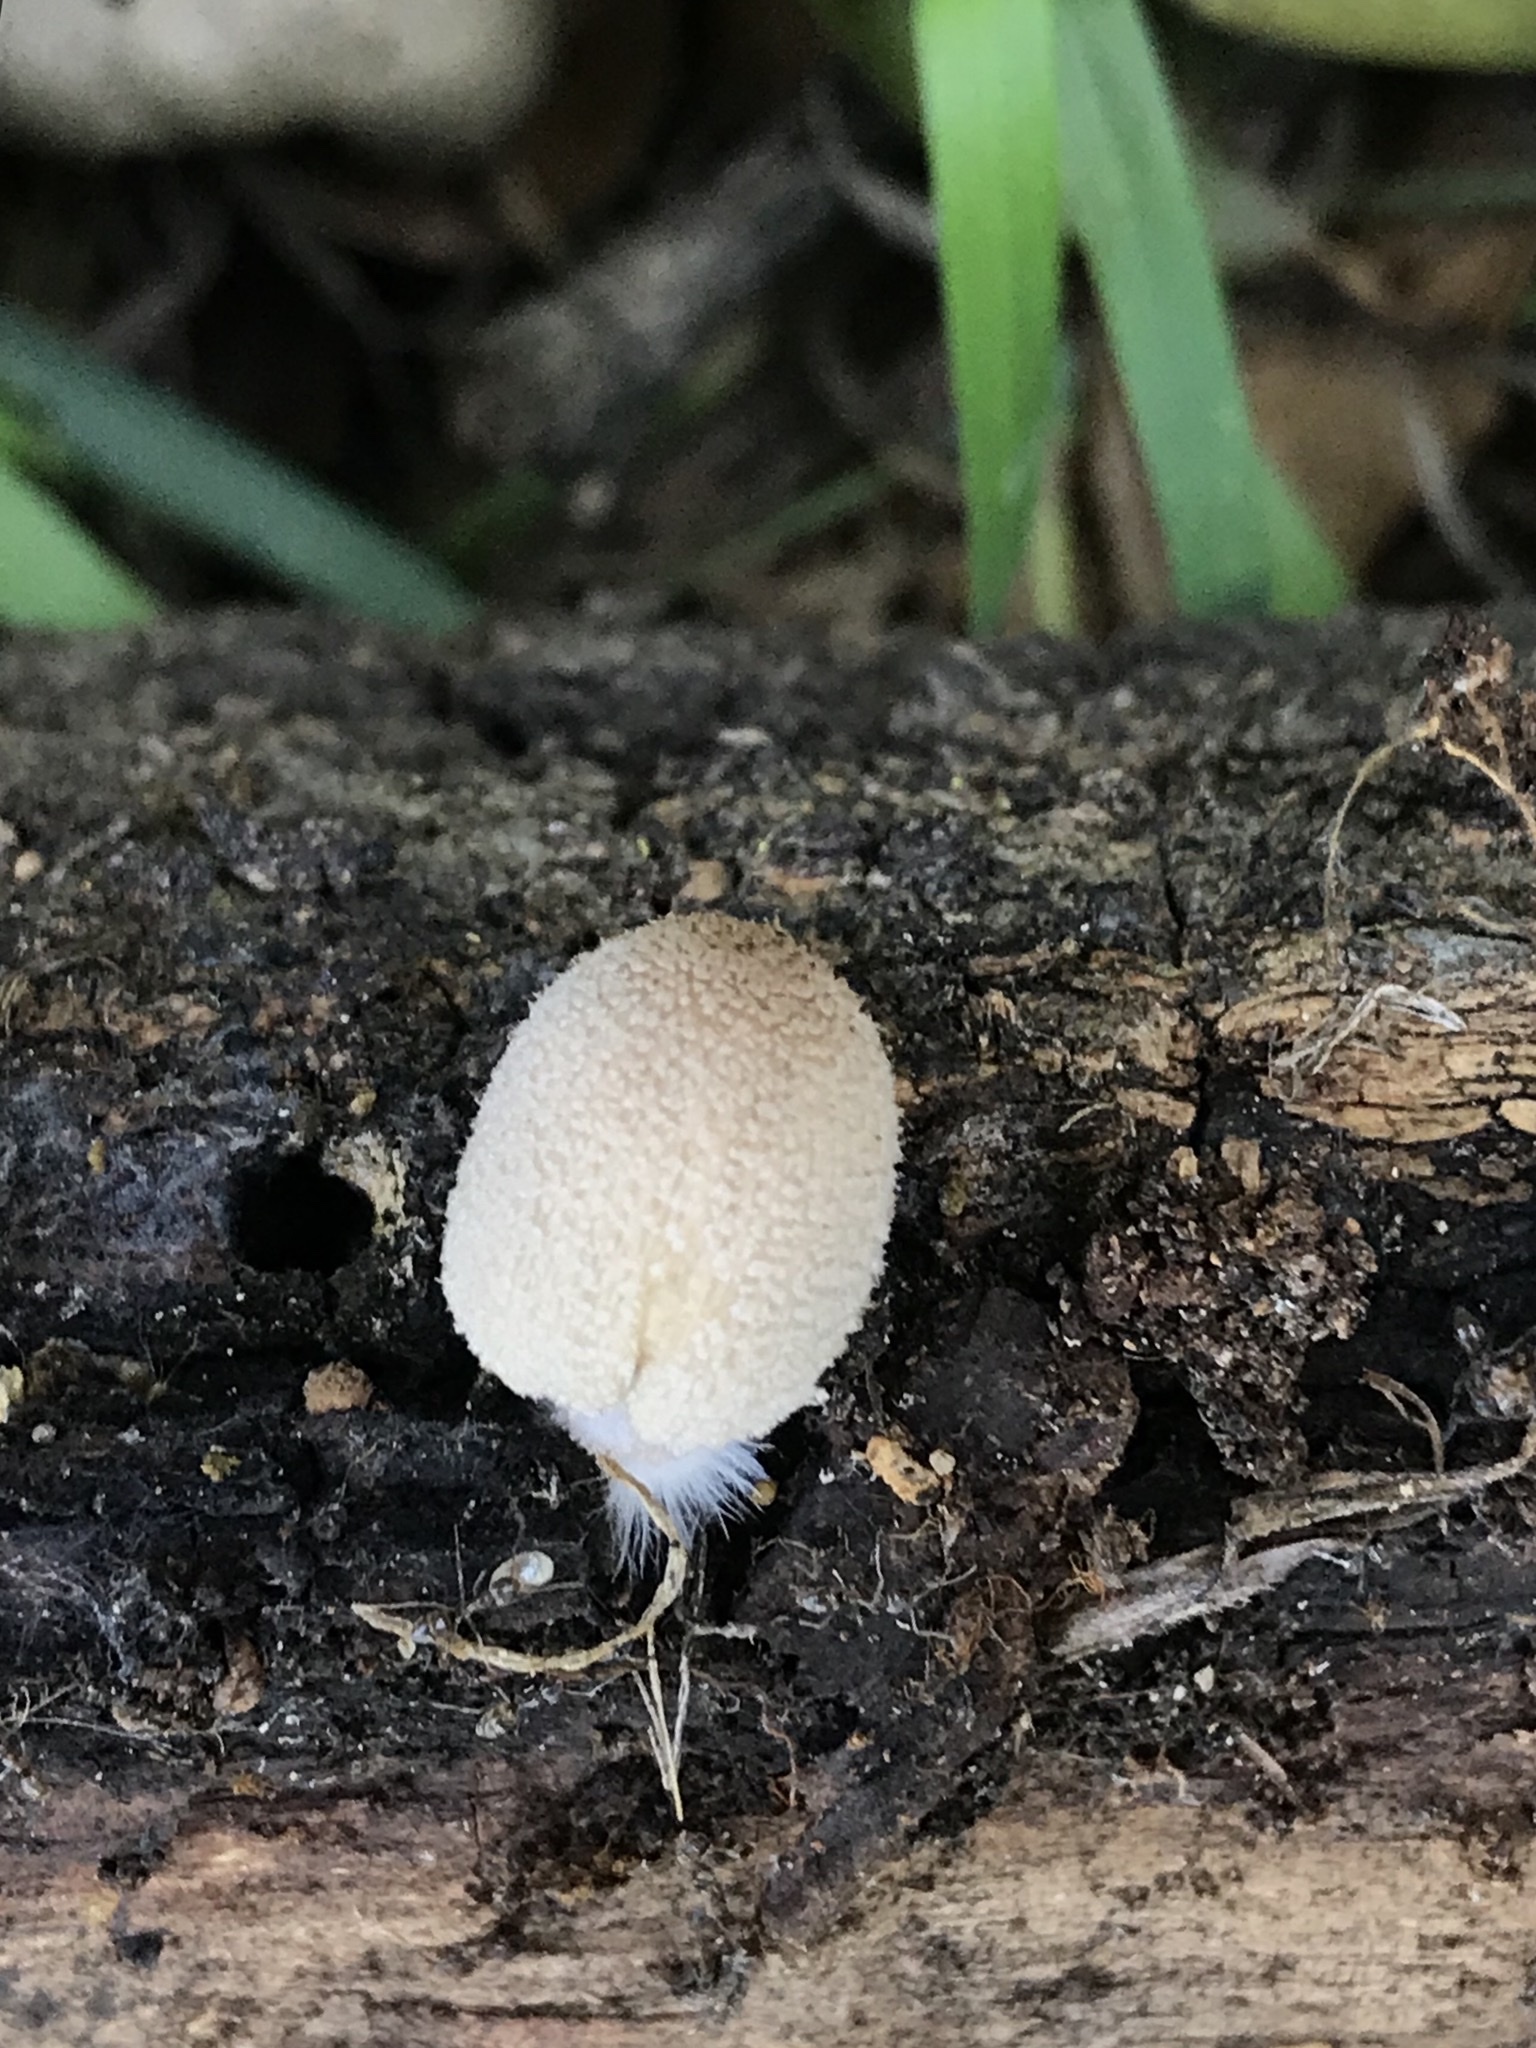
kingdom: Fungi
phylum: Basidiomycota
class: Agaricomycetes
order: Agaricales
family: Psathyrellaceae
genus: Coprinellus
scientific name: Coprinellus
